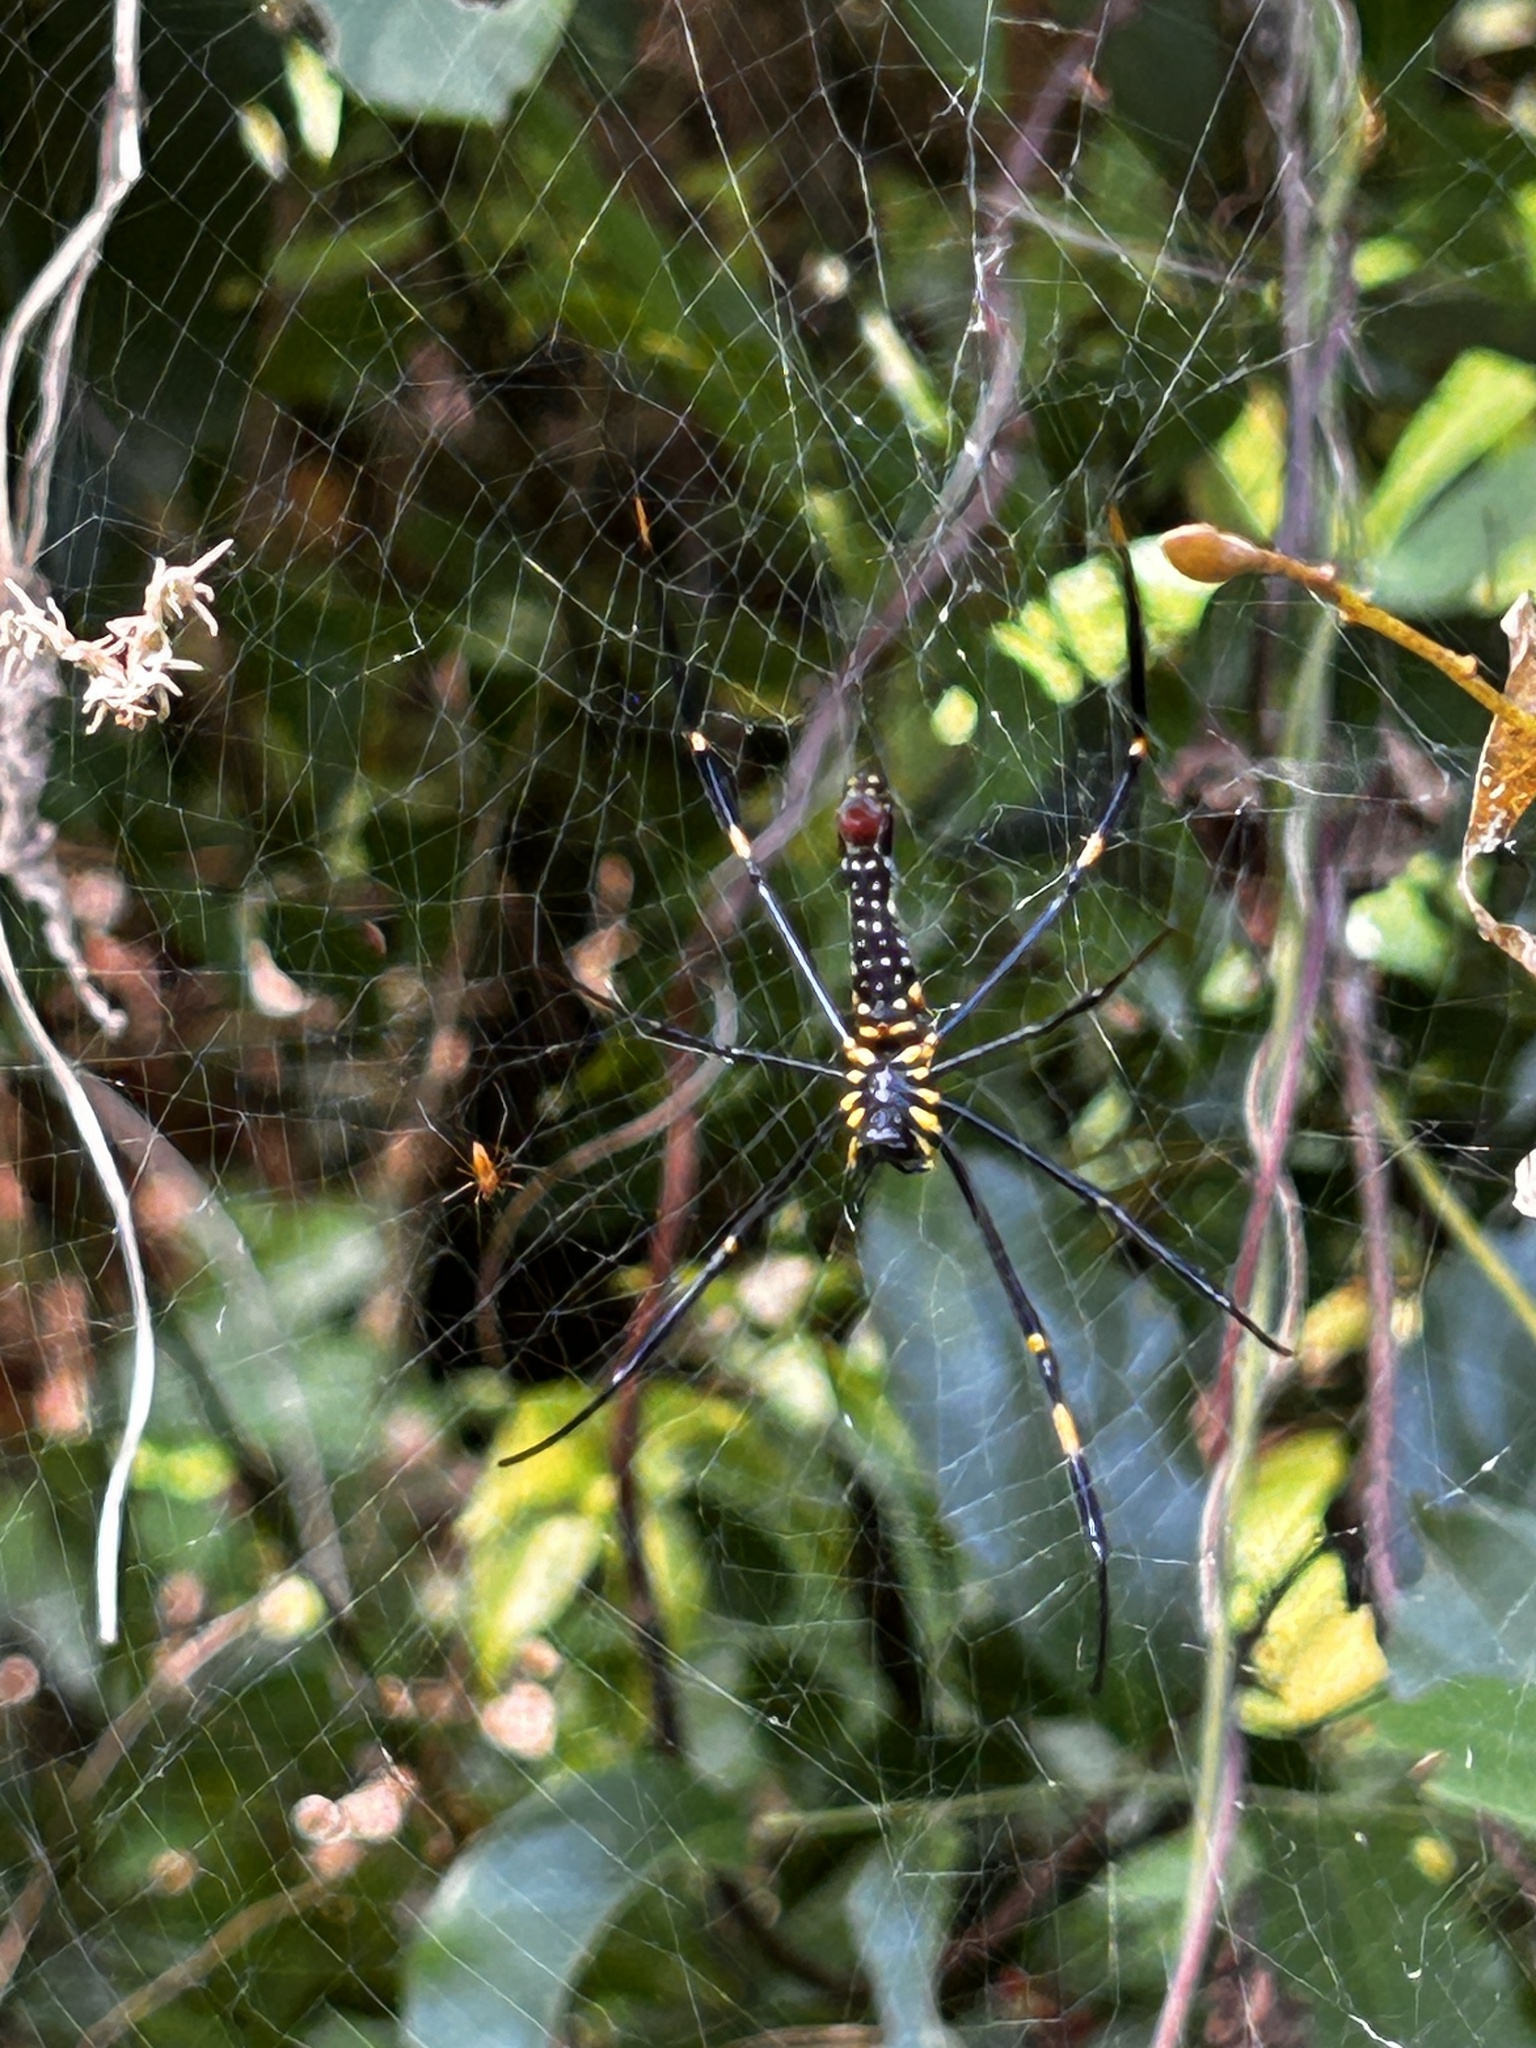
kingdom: Animalia
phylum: Arthropoda
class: Arachnida
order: Araneae
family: Araneidae
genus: Nephila
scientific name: Nephila pilipes
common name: Giant golden orb weaver
